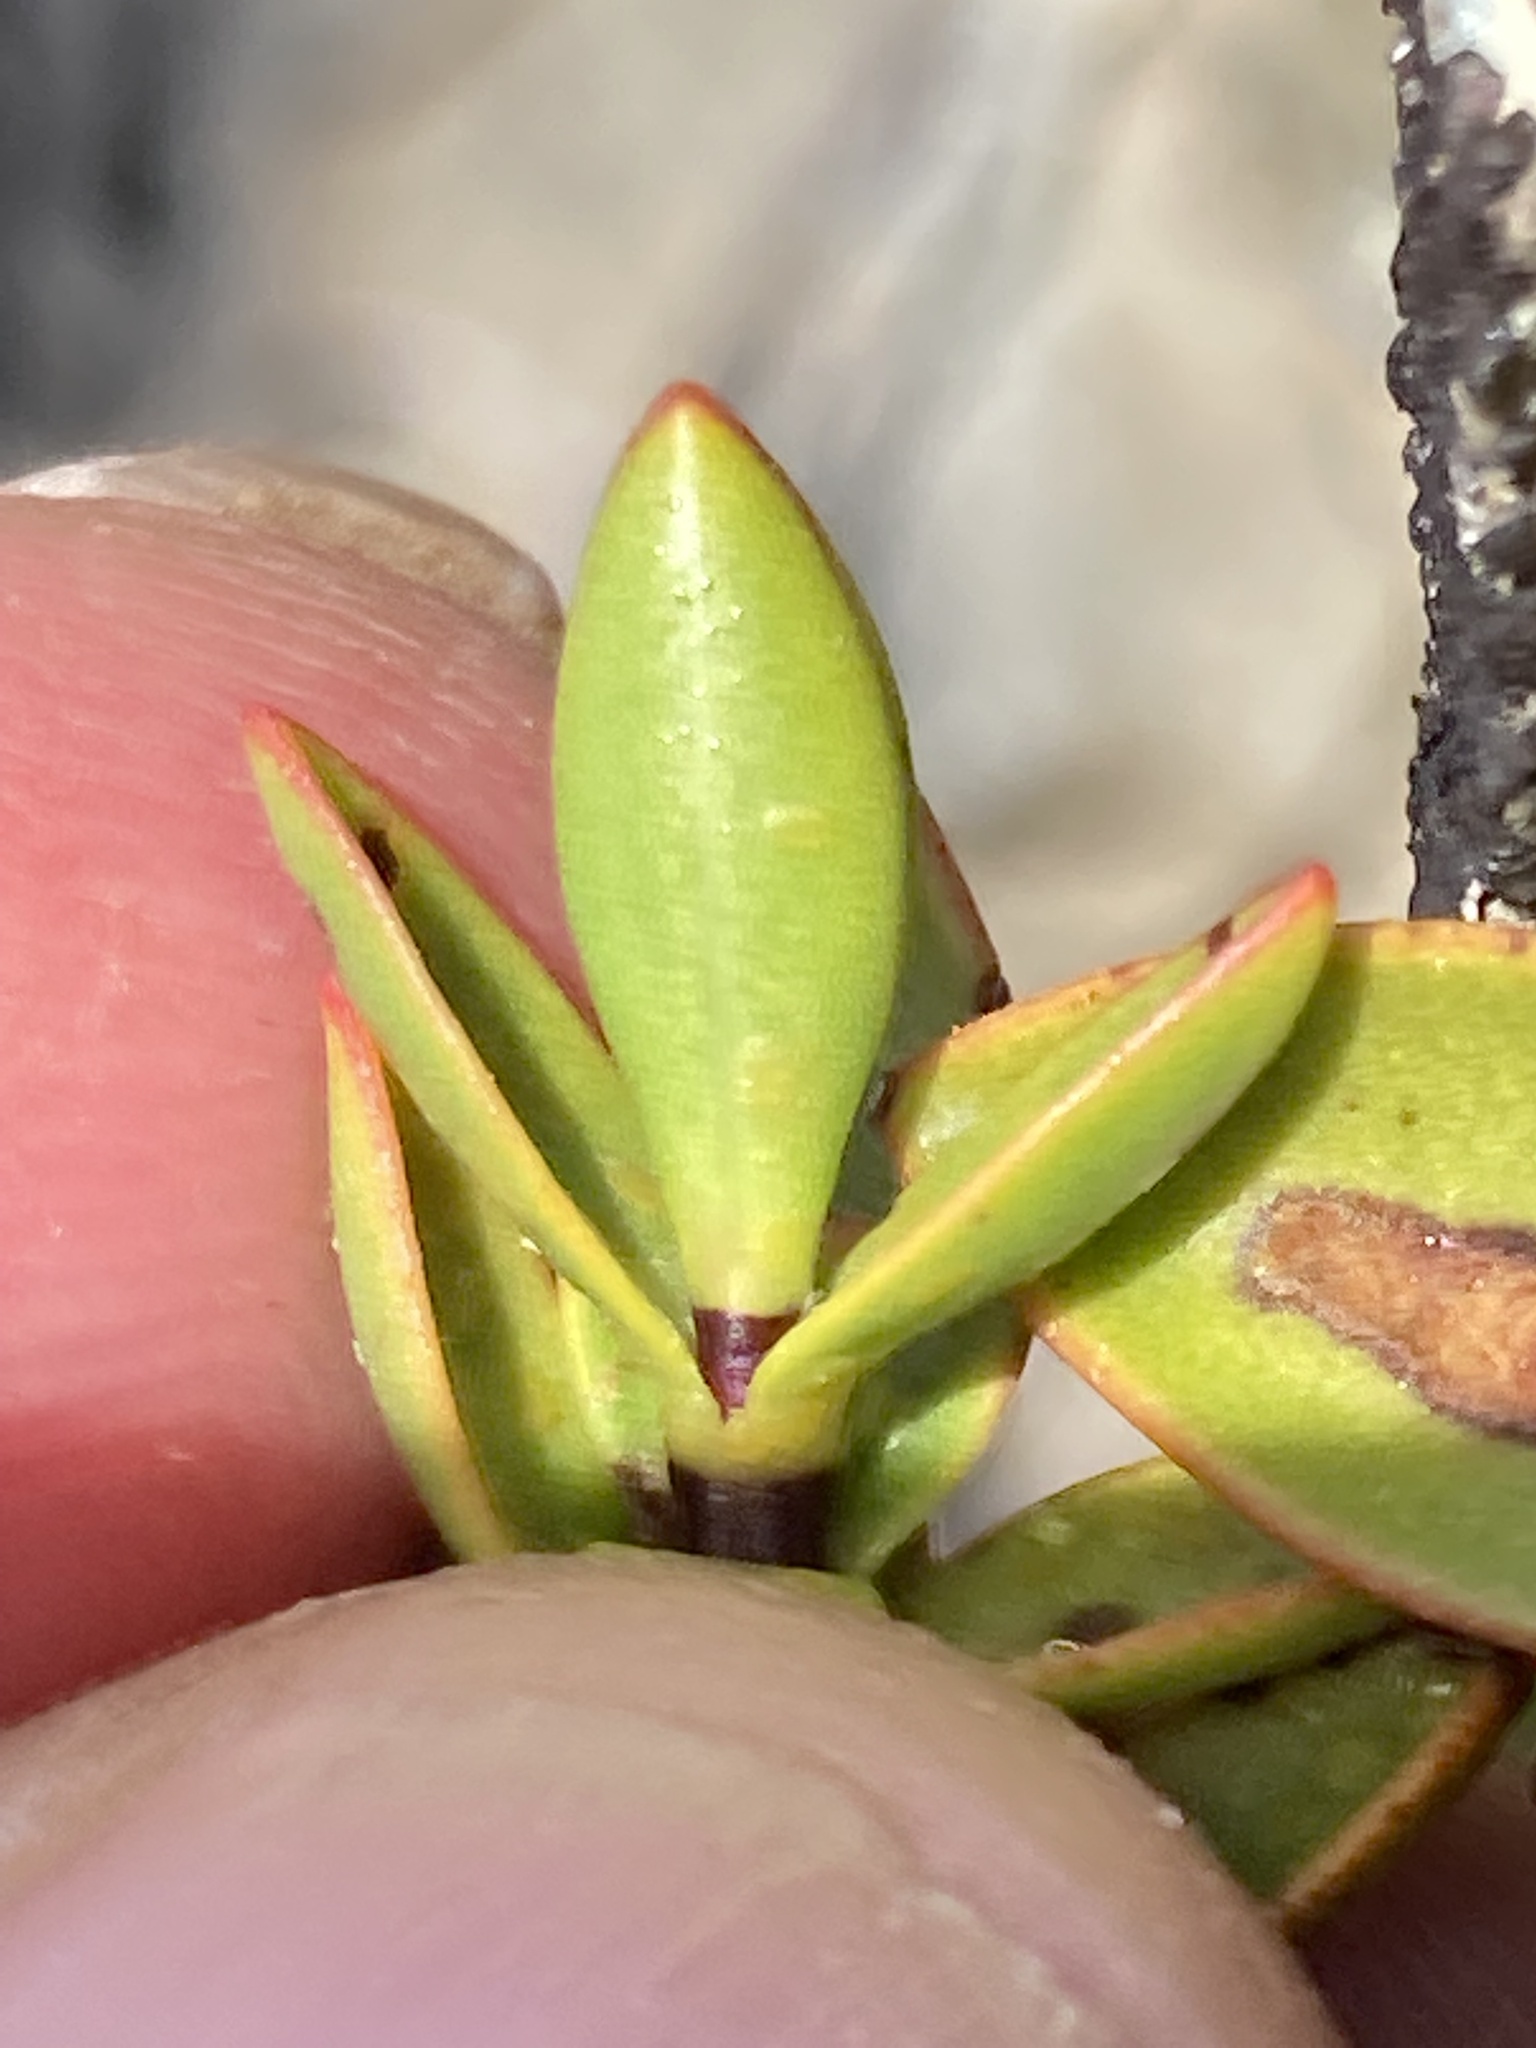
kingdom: Plantae
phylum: Tracheophyta
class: Magnoliopsida
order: Lamiales
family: Plantaginaceae
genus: Veronica
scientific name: Veronica decumbens
